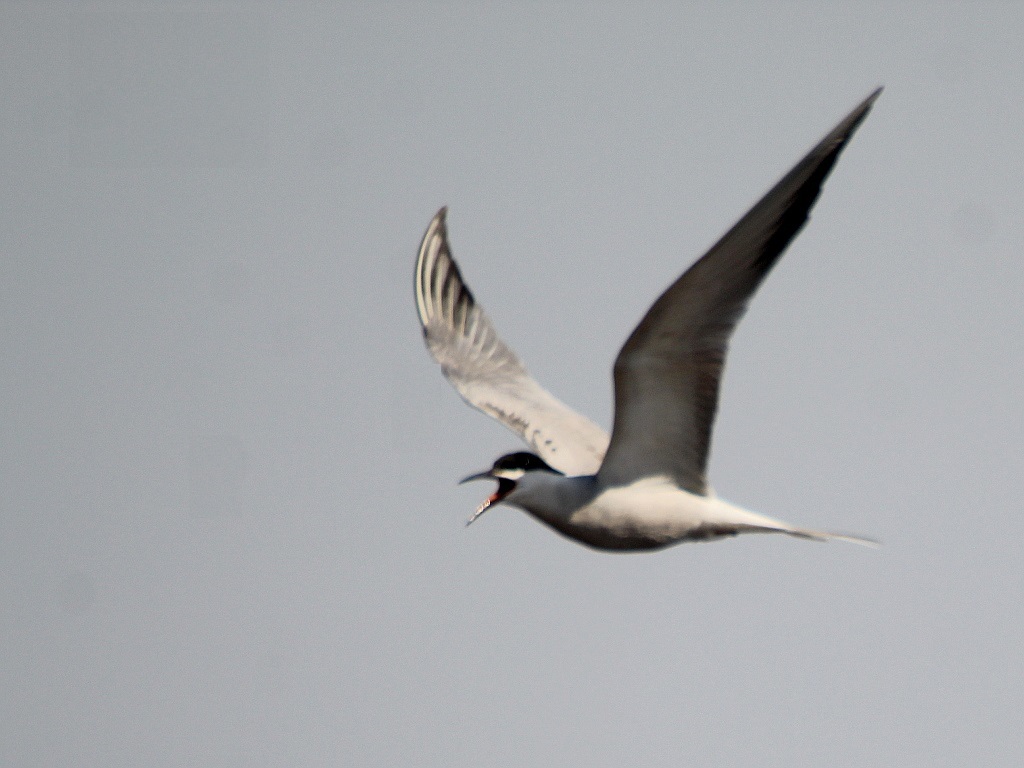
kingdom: Animalia
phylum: Chordata
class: Aves
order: Charadriiformes
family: Laridae
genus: Sterna
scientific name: Sterna hirundo
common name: Common tern
